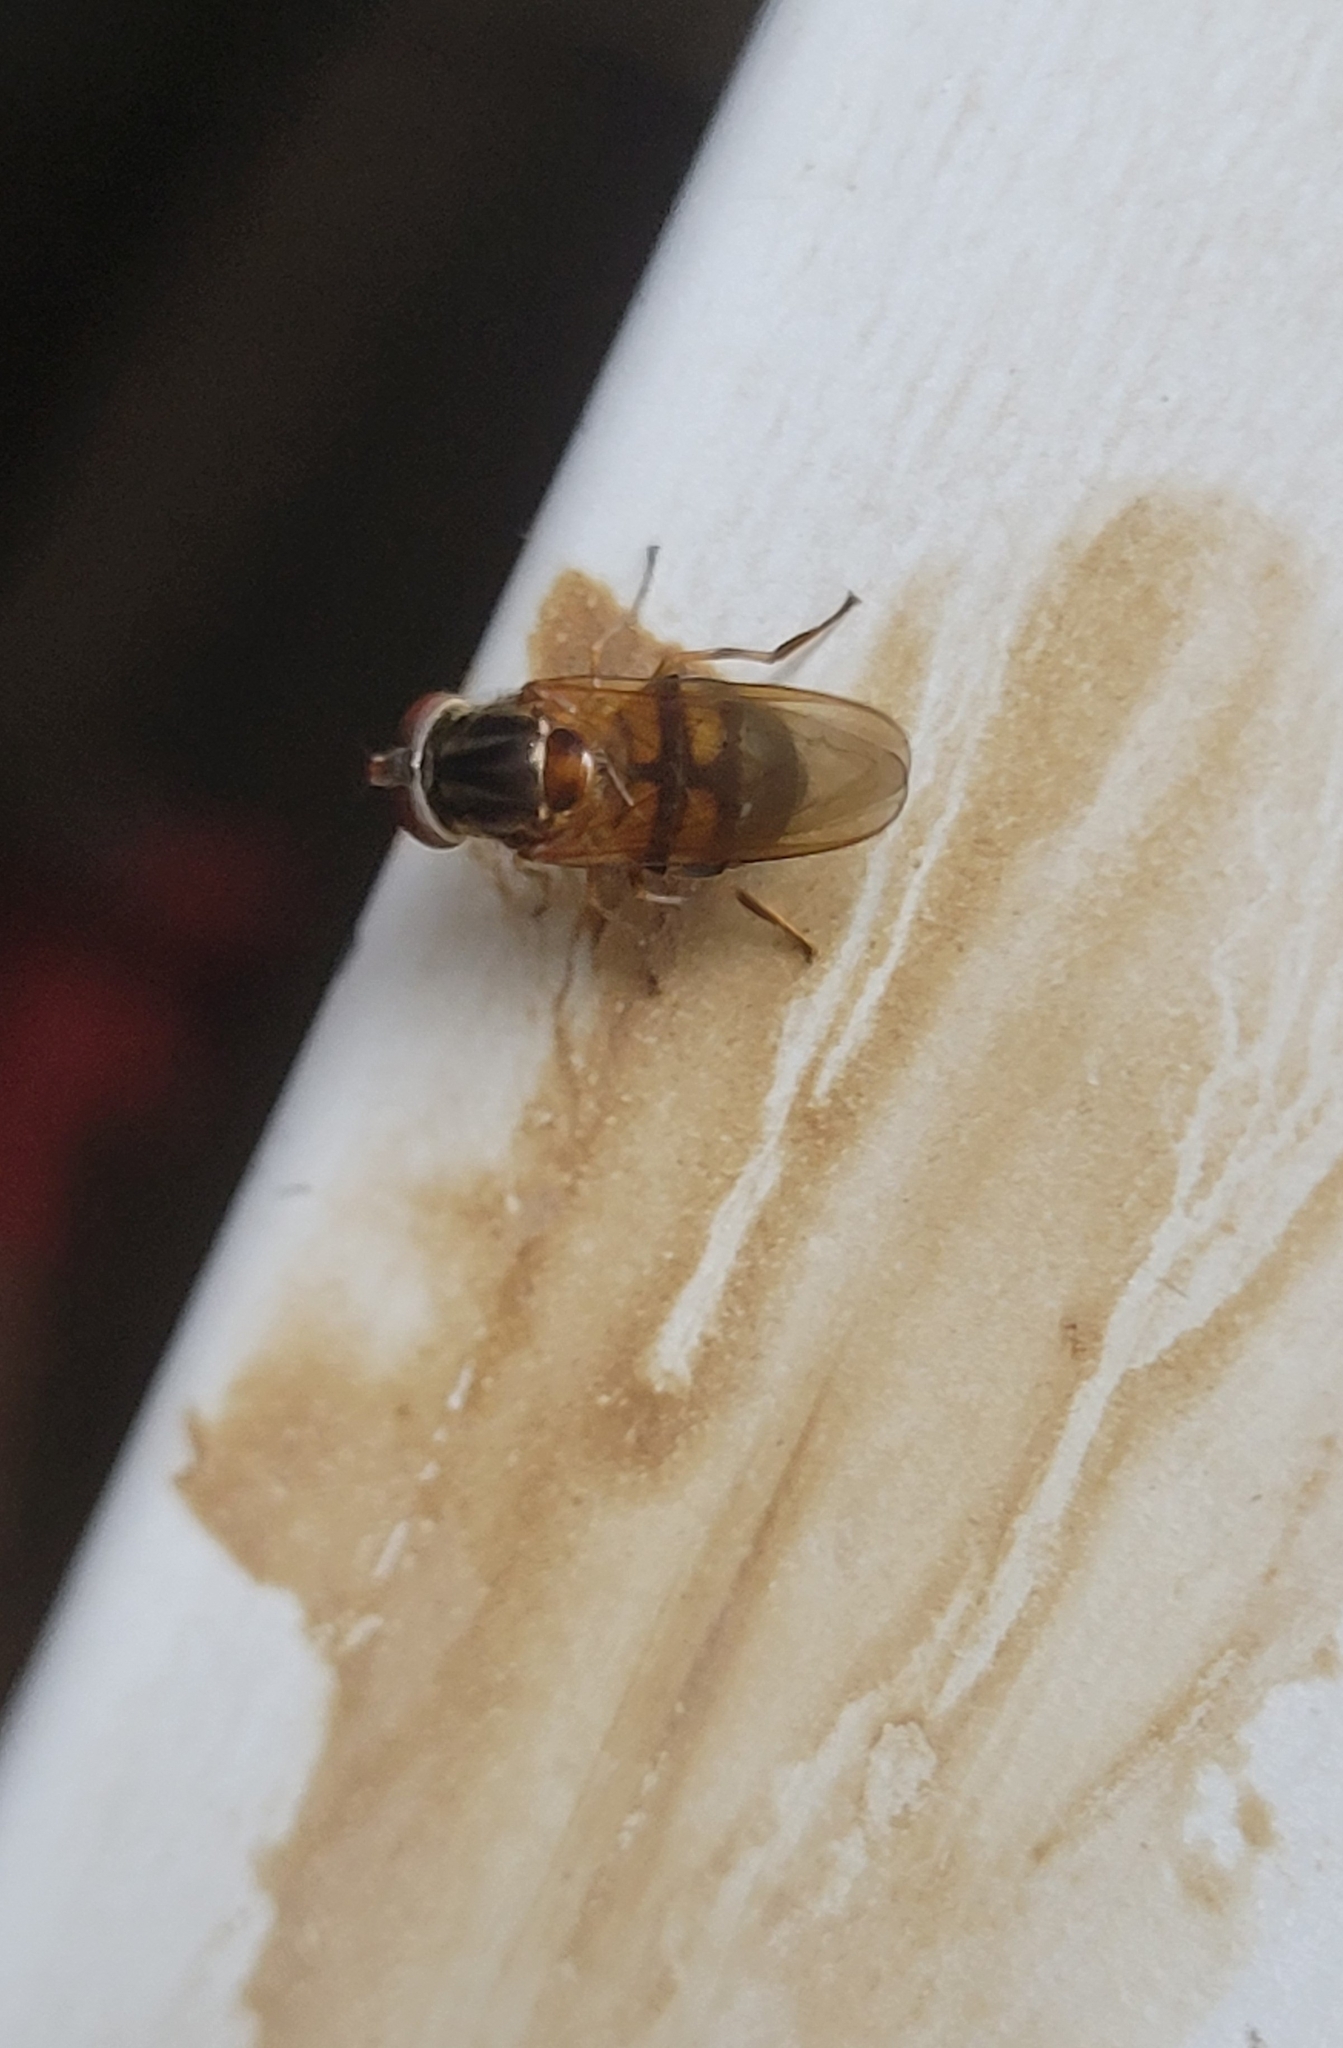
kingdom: Animalia
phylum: Arthropoda
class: Insecta
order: Diptera
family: Syrphidae
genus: Rhingia
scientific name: Rhingia nasica
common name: American snout fly
